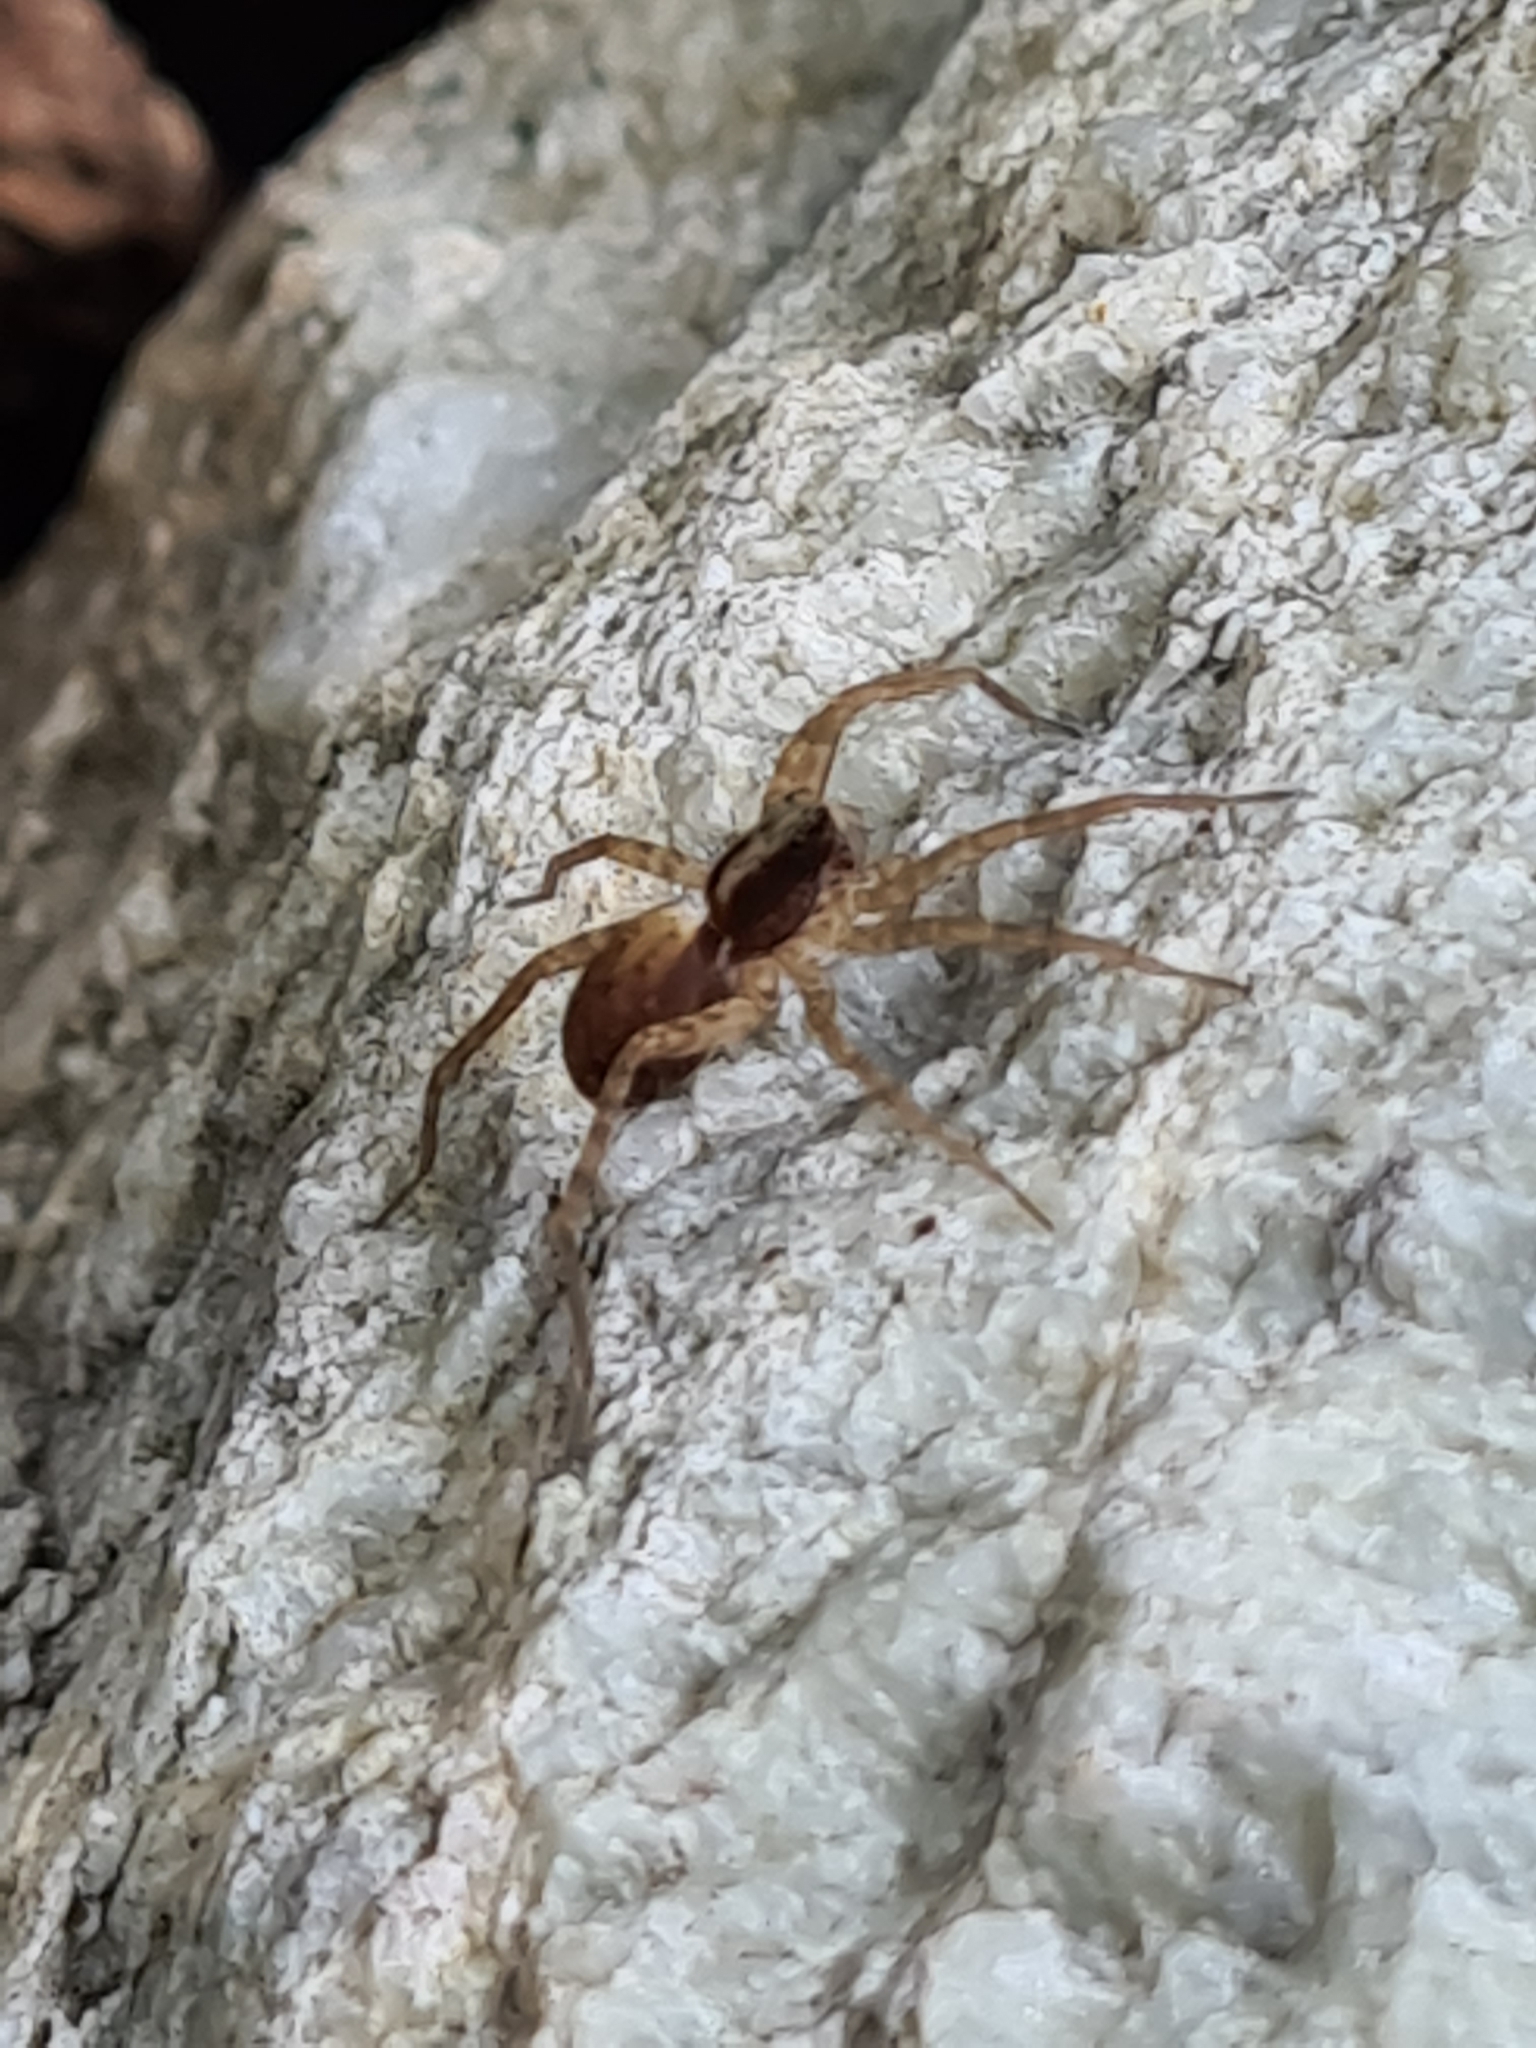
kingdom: Animalia
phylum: Arthropoda
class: Arachnida
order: Araneae
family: Lycosidae
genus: Pardosa
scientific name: Pardosa
